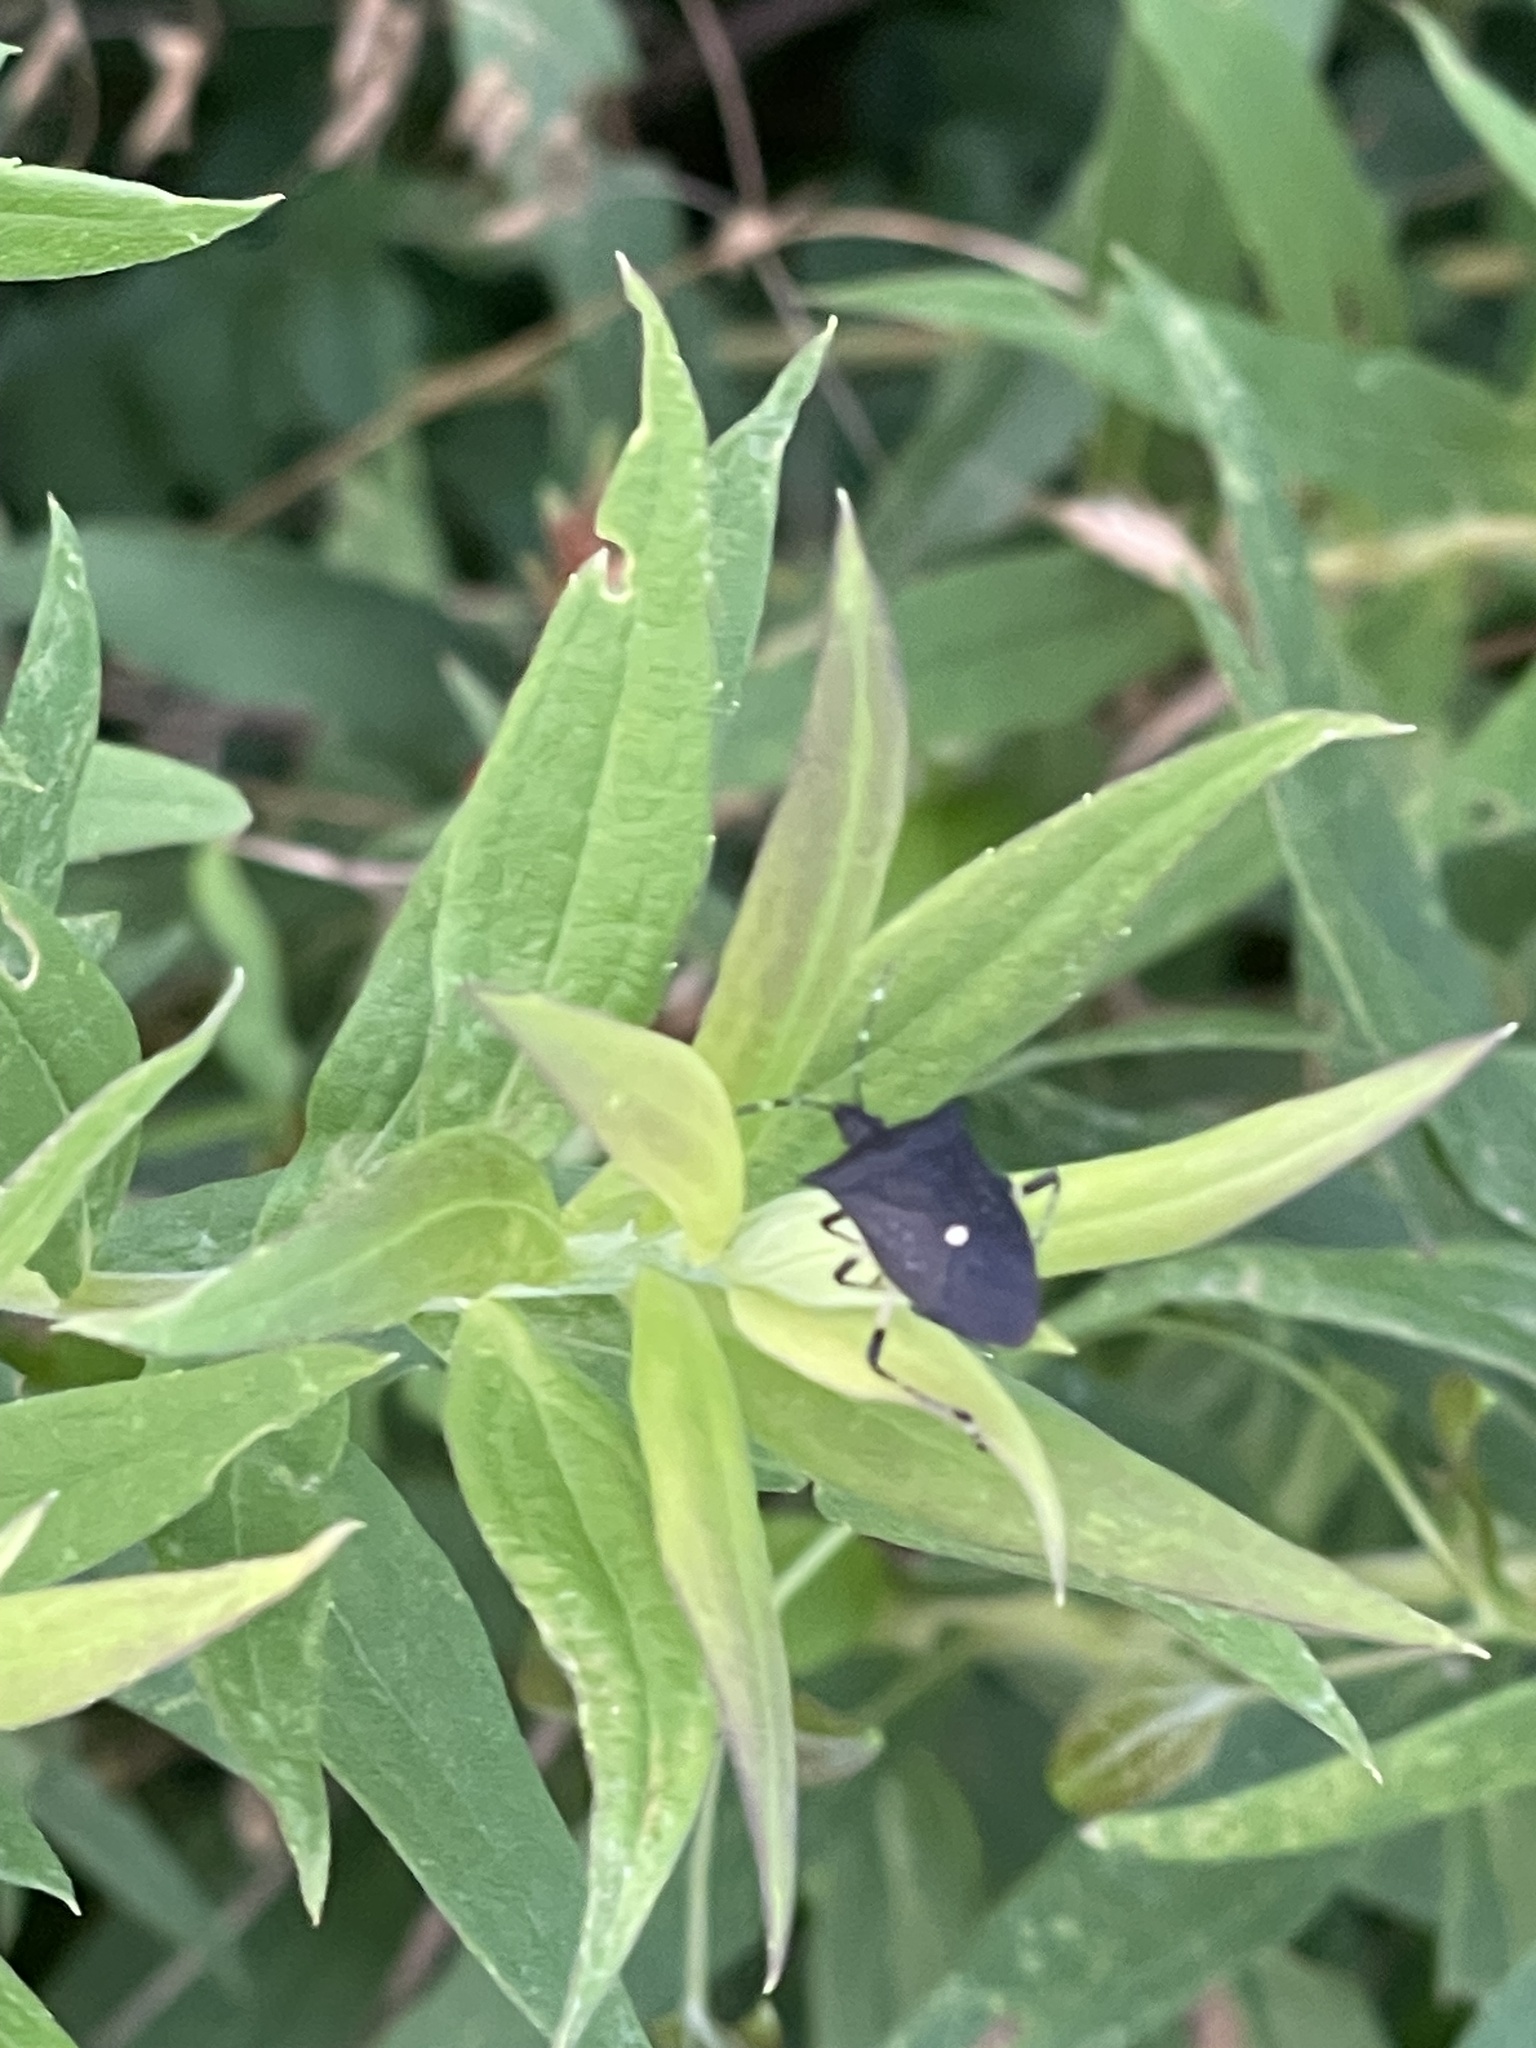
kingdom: Animalia
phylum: Arthropoda
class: Insecta
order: Hemiptera
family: Pentatomidae
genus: Proxys
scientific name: Proxys punctulatus
